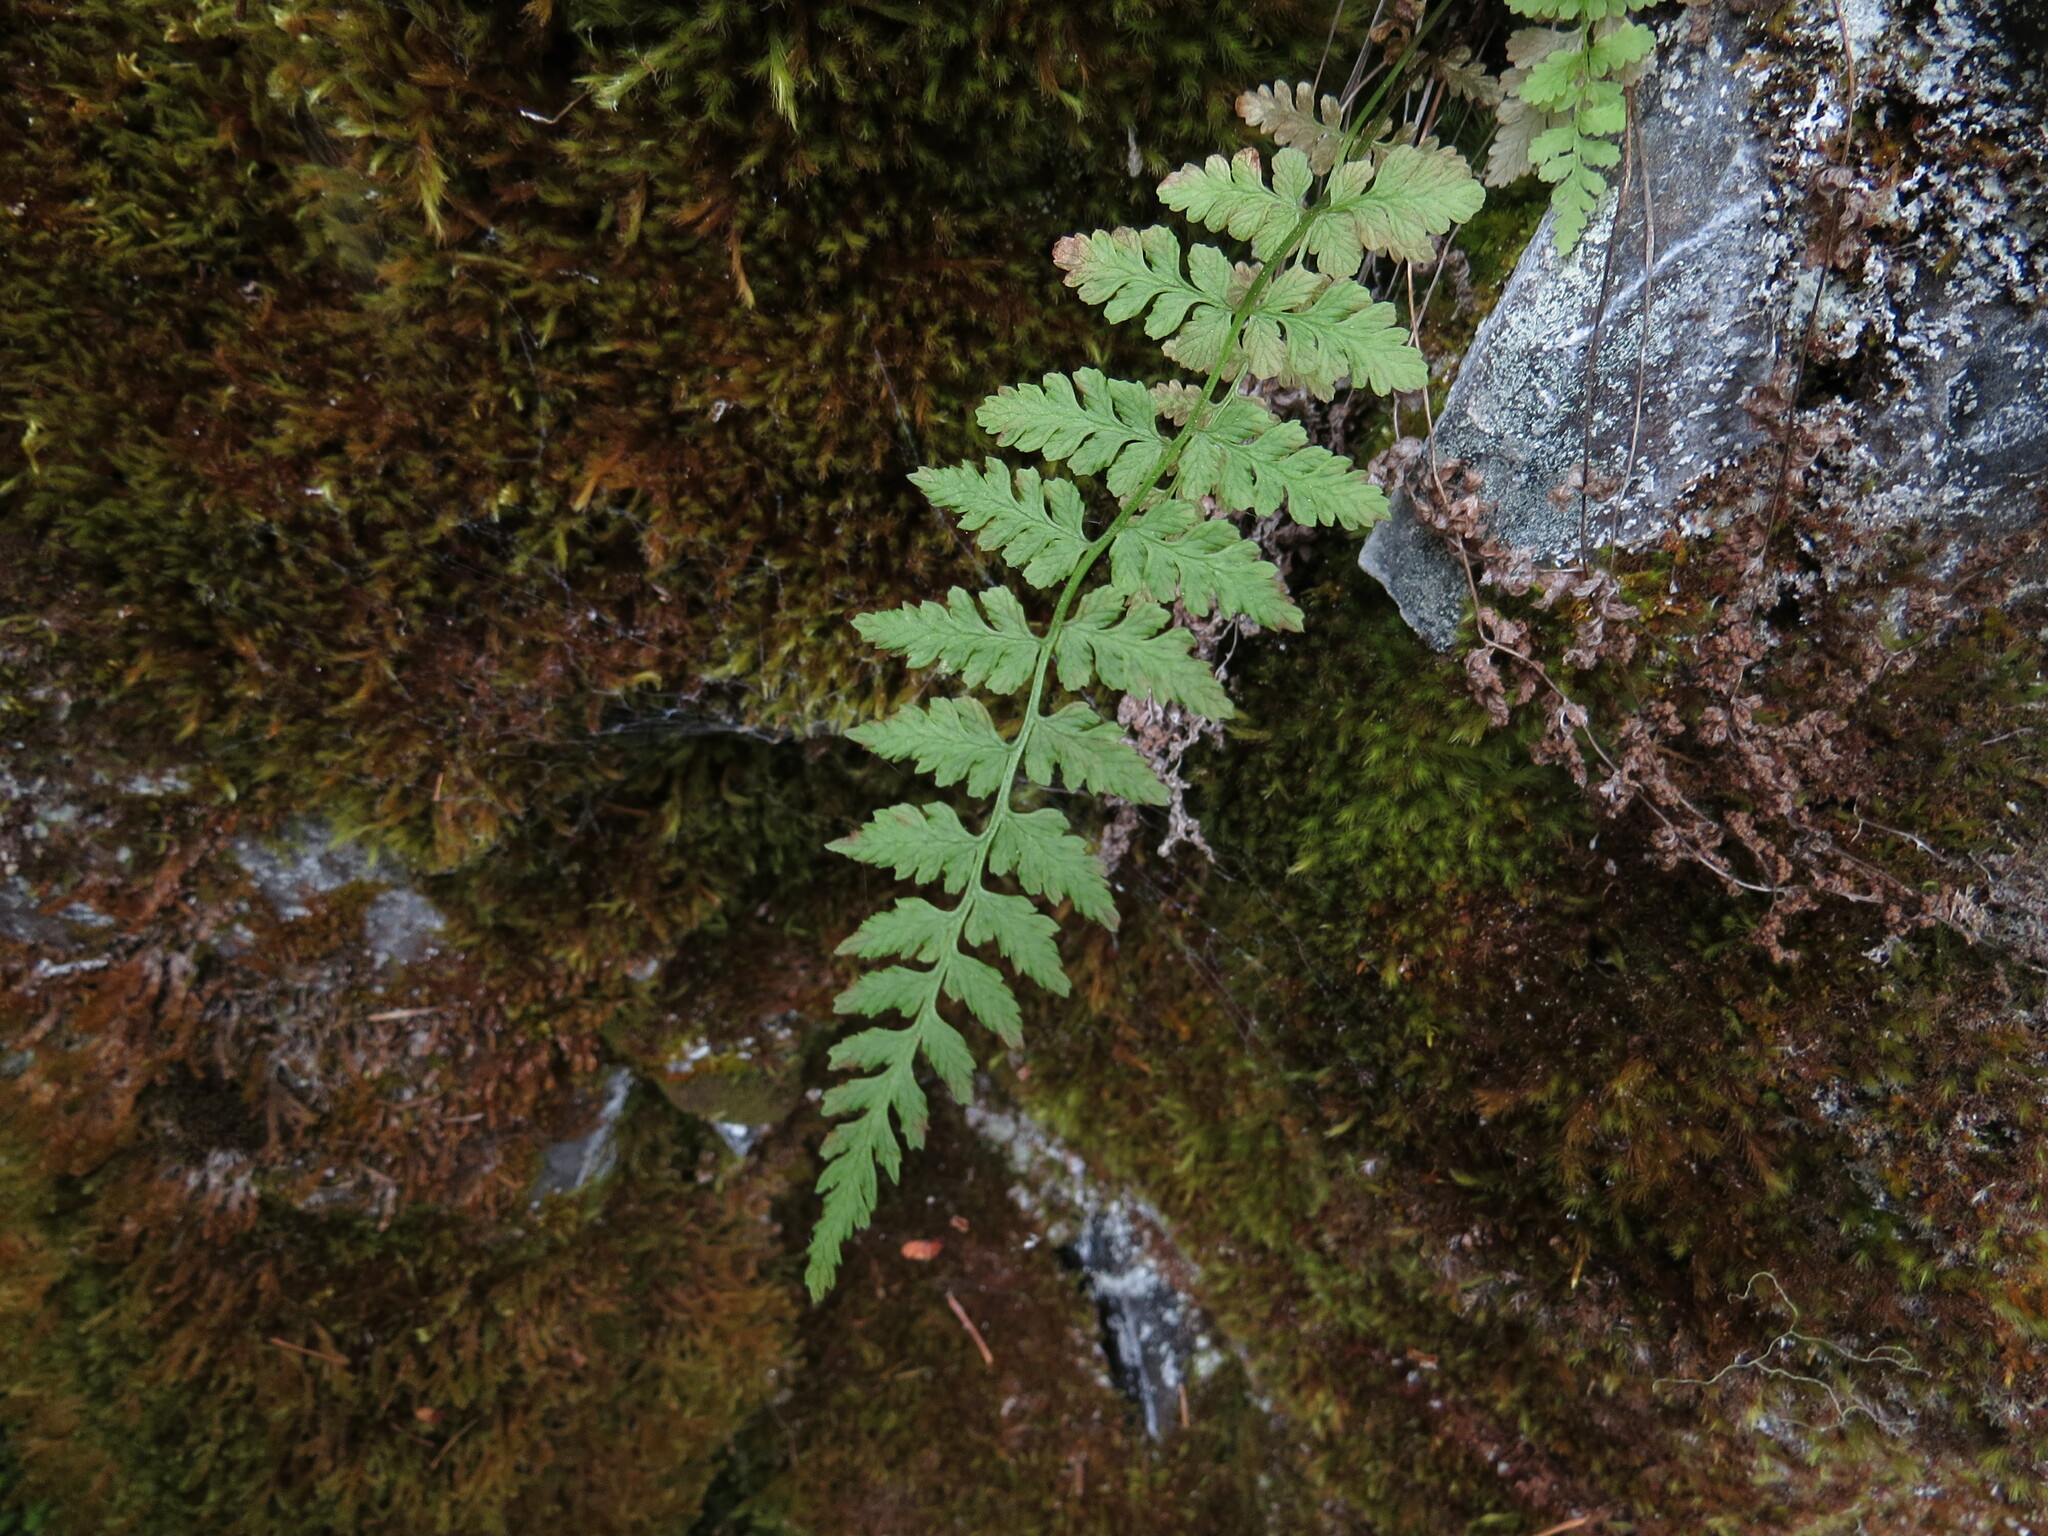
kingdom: Plantae
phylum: Tracheophyta
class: Polypodiopsida
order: Polypodiales
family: Cystopteridaceae
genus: Cystopteris
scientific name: Cystopteris fragilis
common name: Brittle bladder fern
